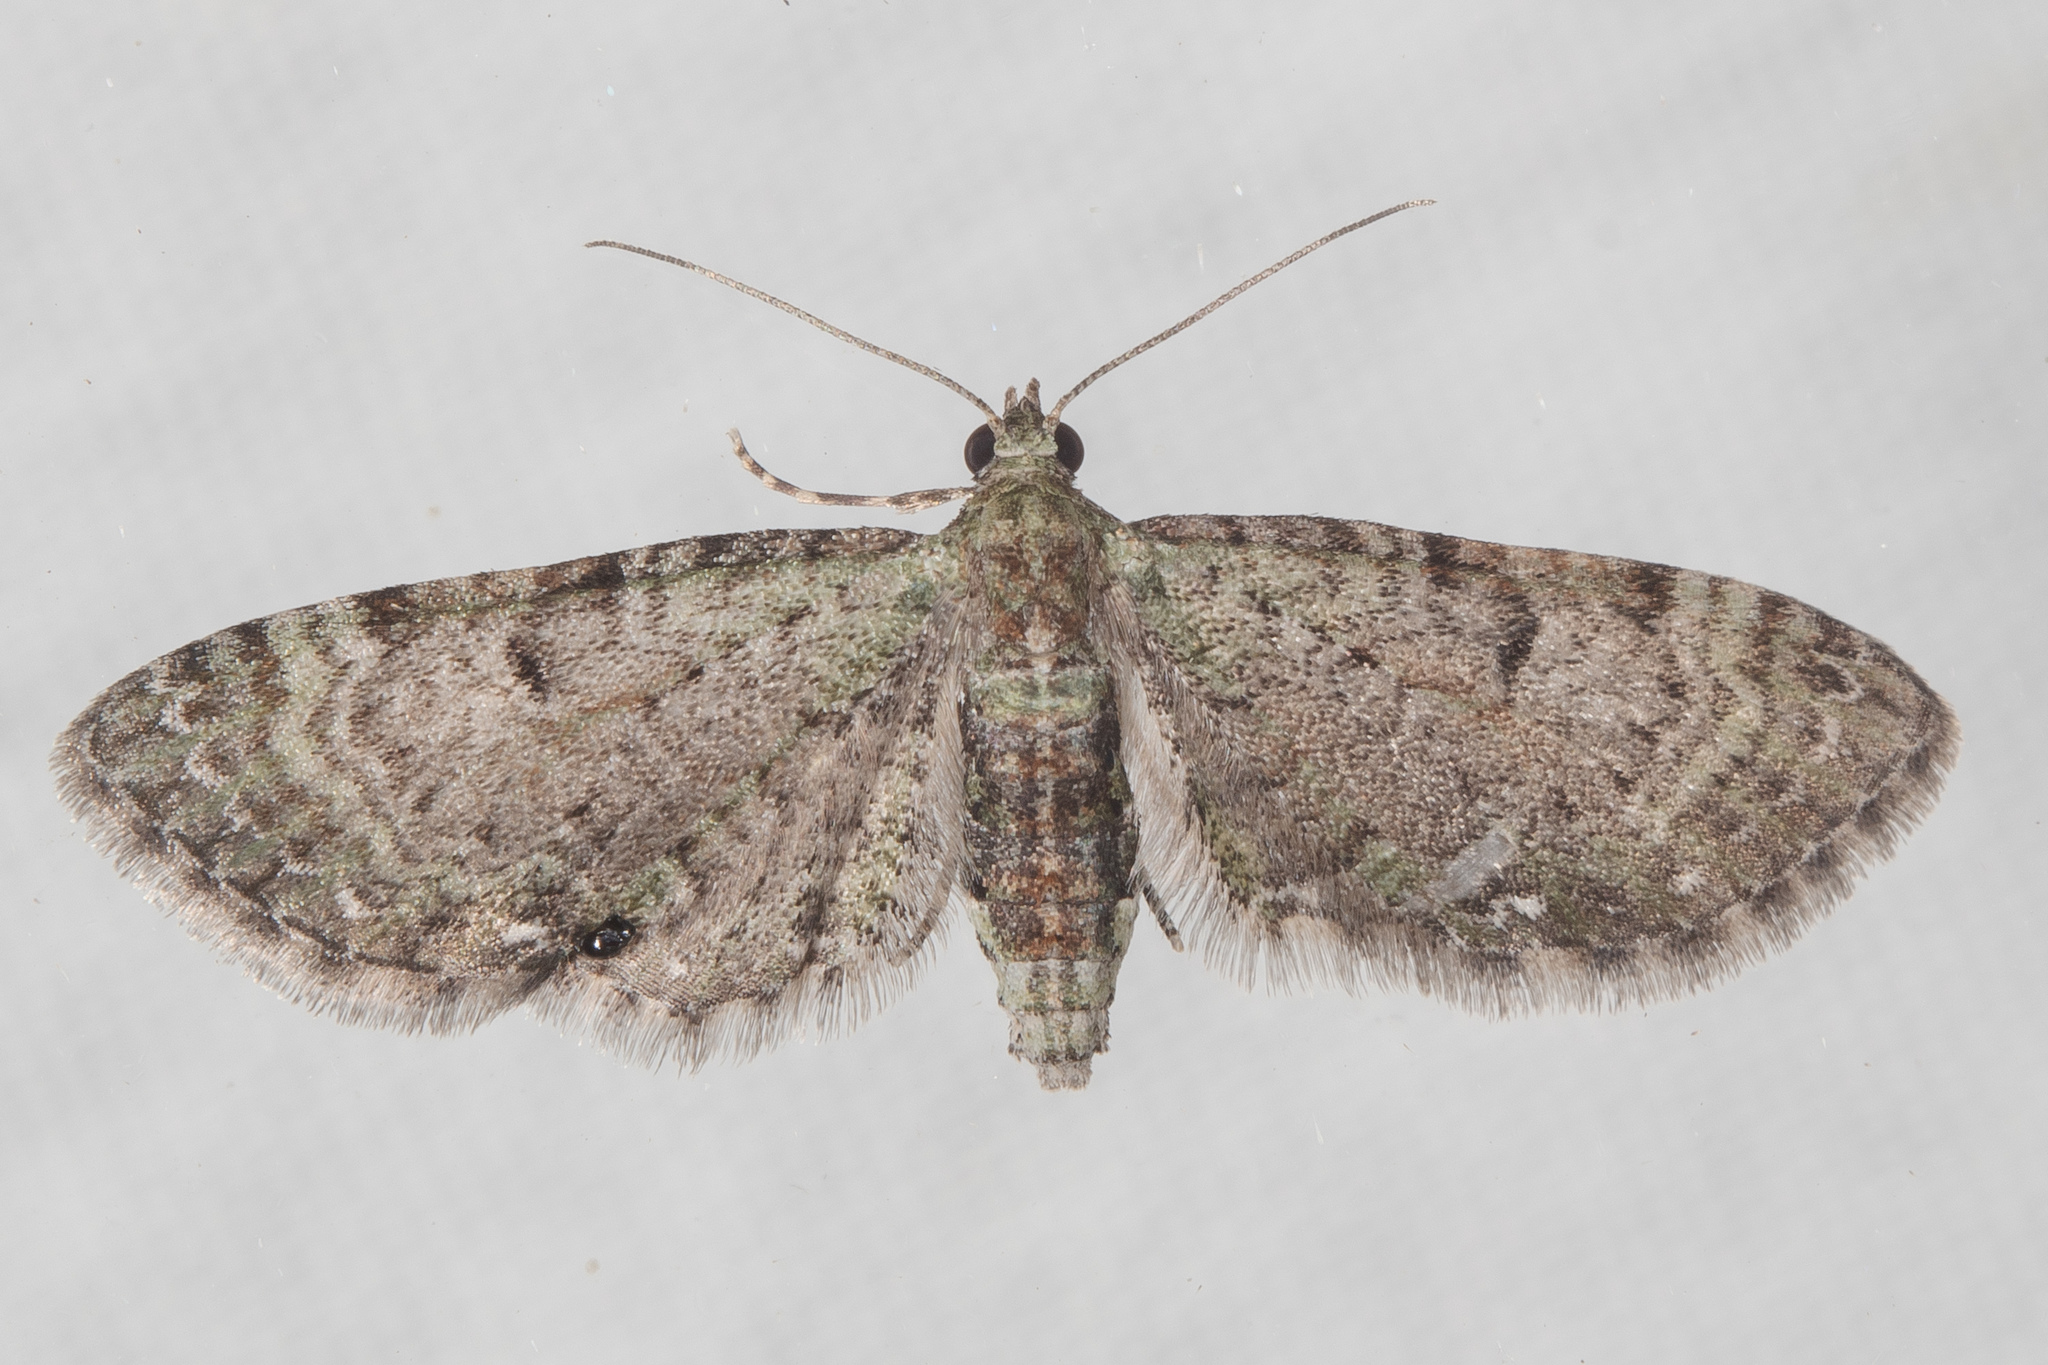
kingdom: Animalia
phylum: Arthropoda
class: Insecta
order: Lepidoptera
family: Geometridae
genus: Eupithecia
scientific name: Eupithecia miserulata
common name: Common eupithecia
